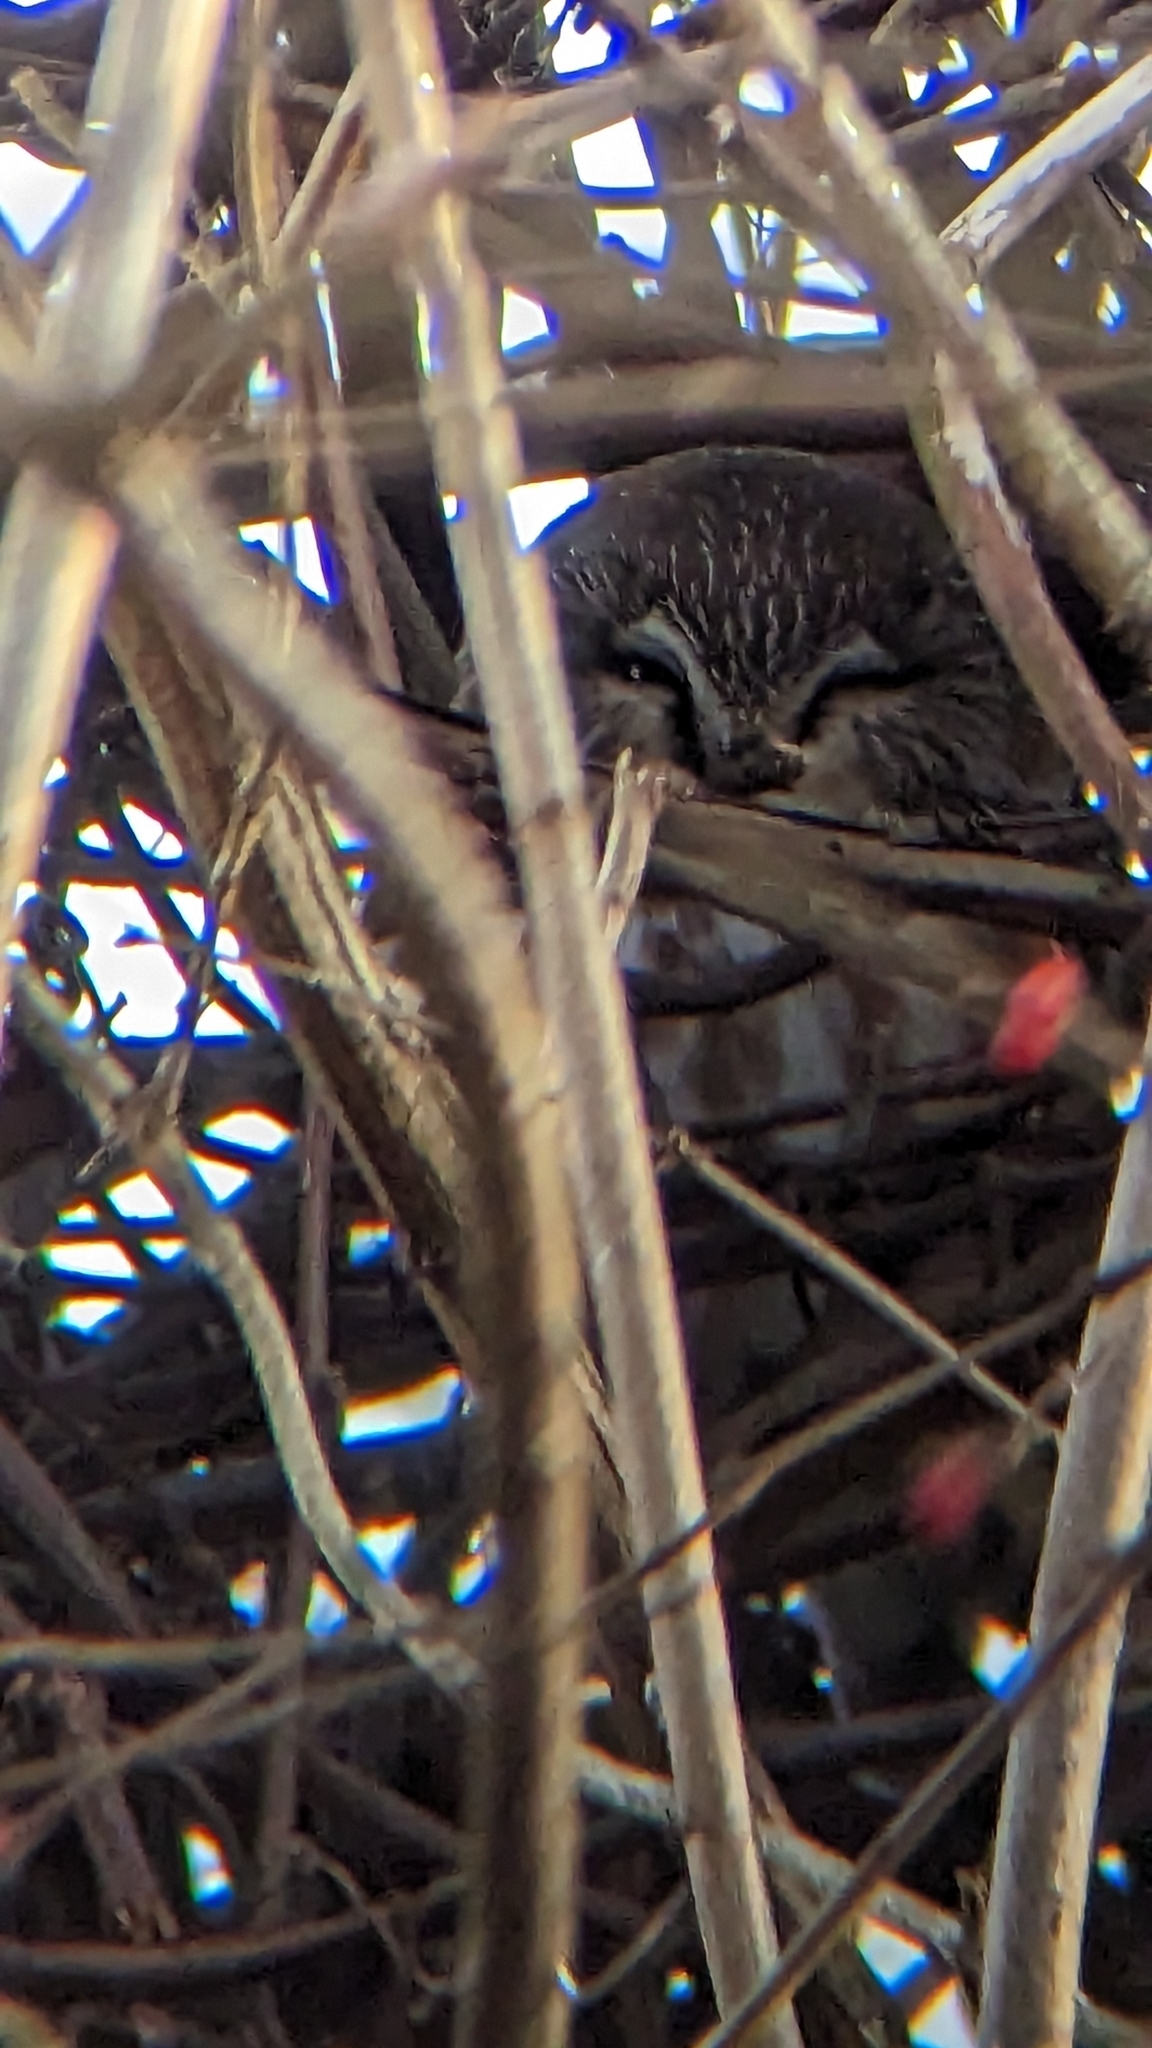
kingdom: Animalia
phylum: Chordata
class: Aves
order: Strigiformes
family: Strigidae
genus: Aegolius
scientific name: Aegolius acadicus
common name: Northern saw-whet owl
